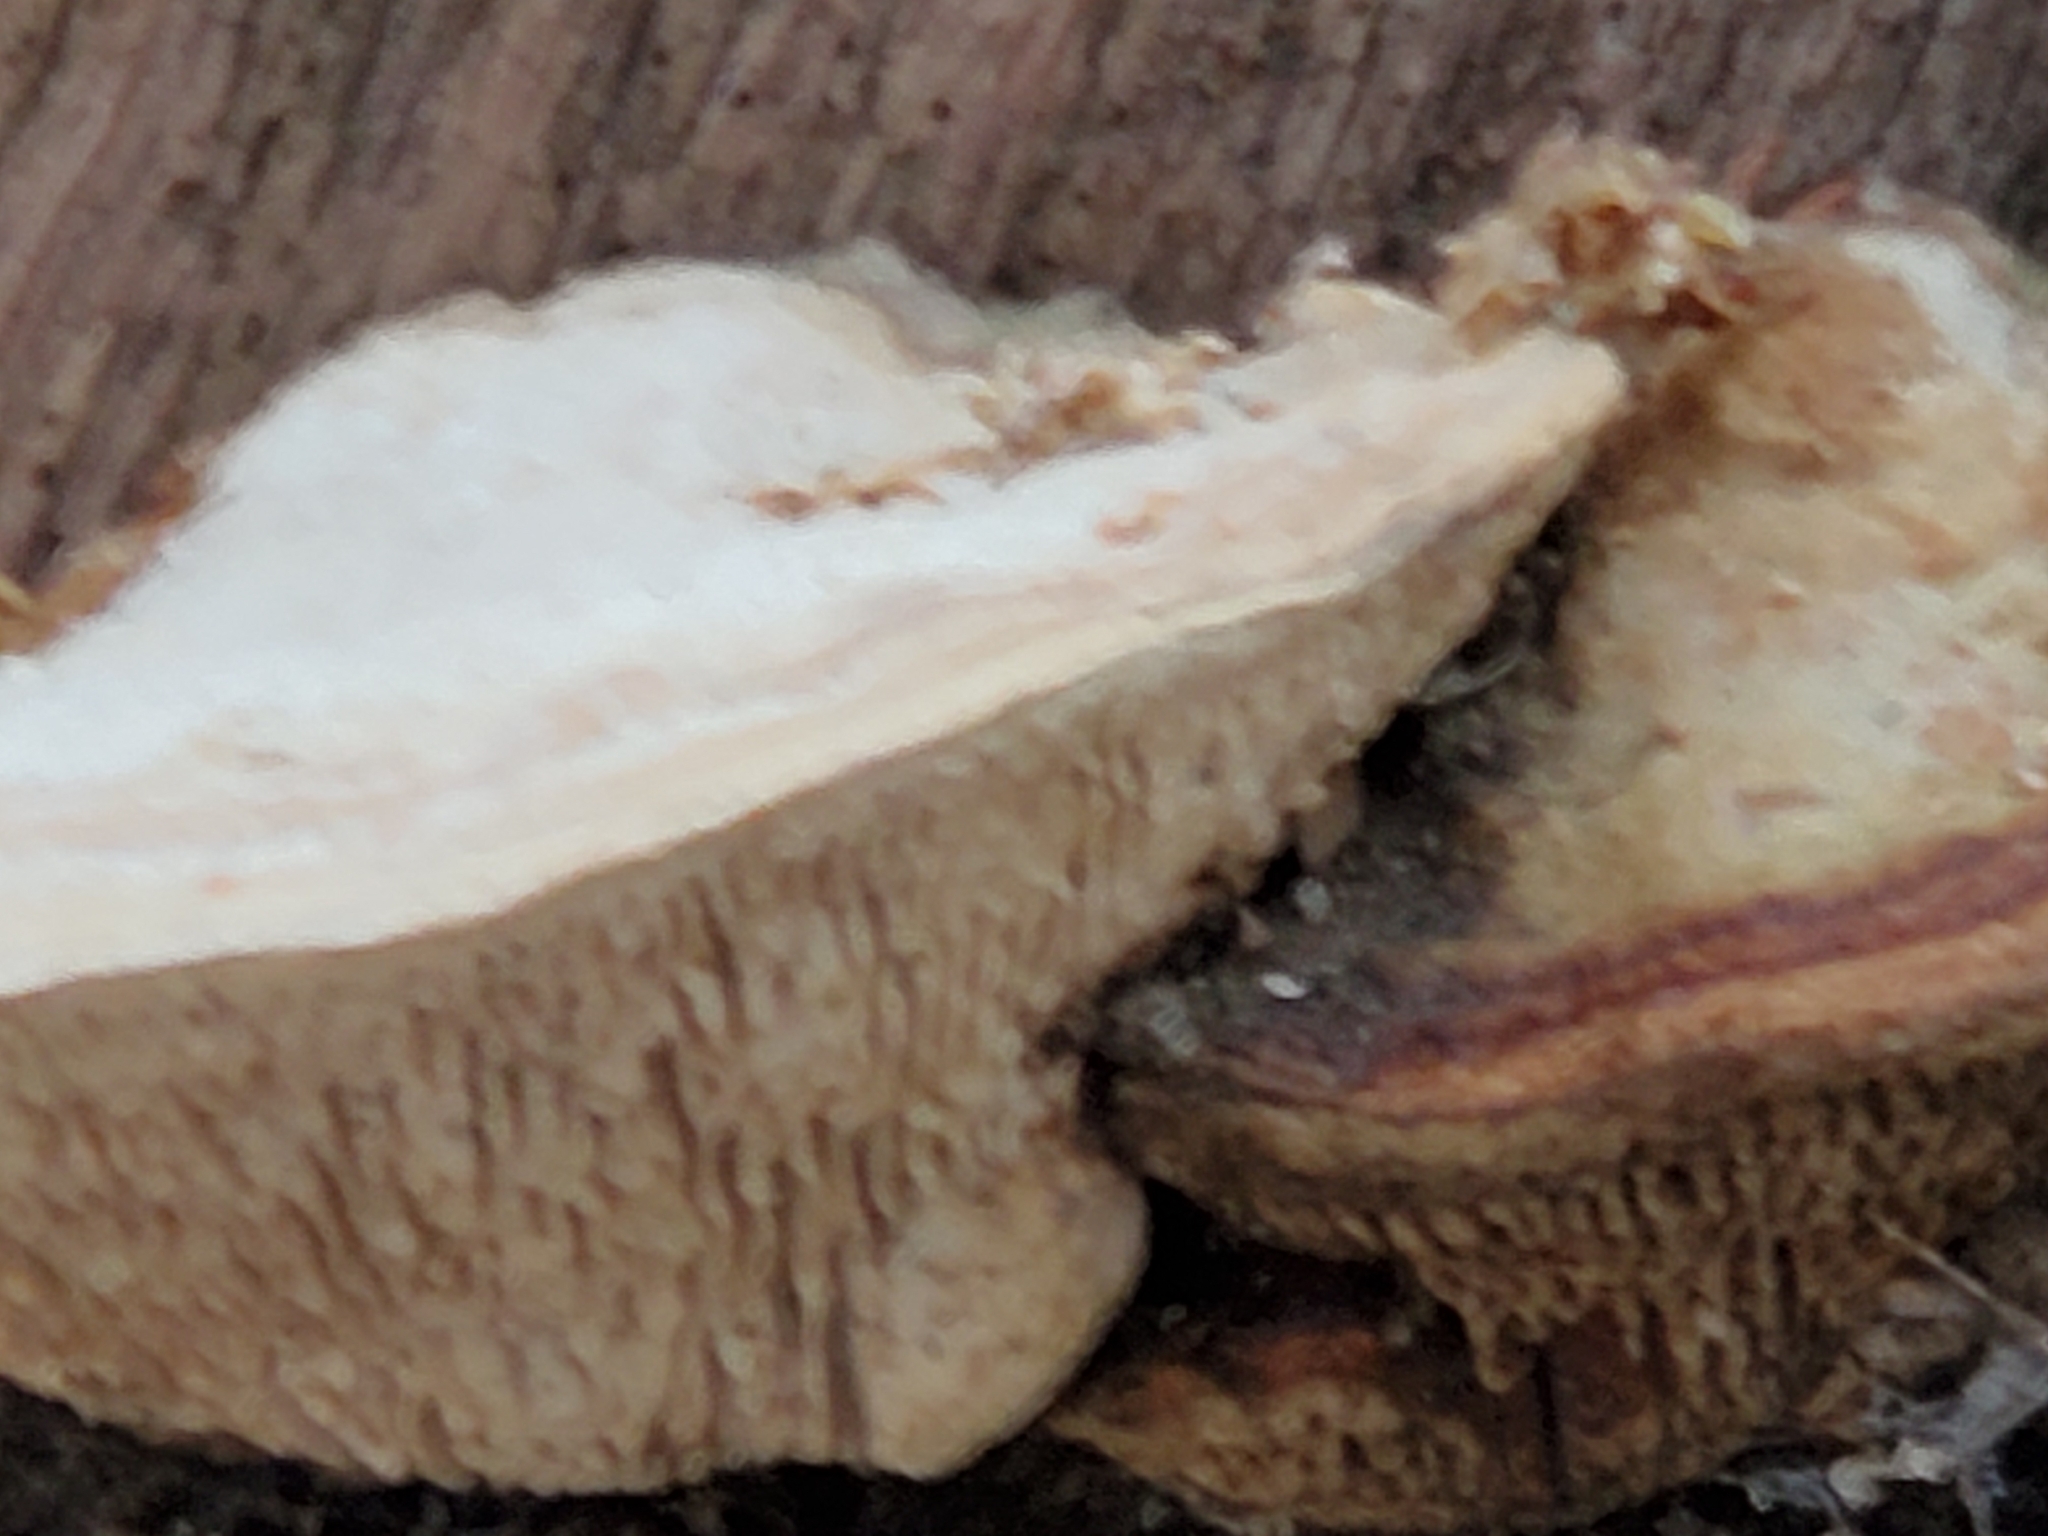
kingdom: Fungi
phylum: Basidiomycota
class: Agaricomycetes
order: Polyporales
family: Fomitopsidaceae
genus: Fomitopsis
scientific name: Fomitopsis
